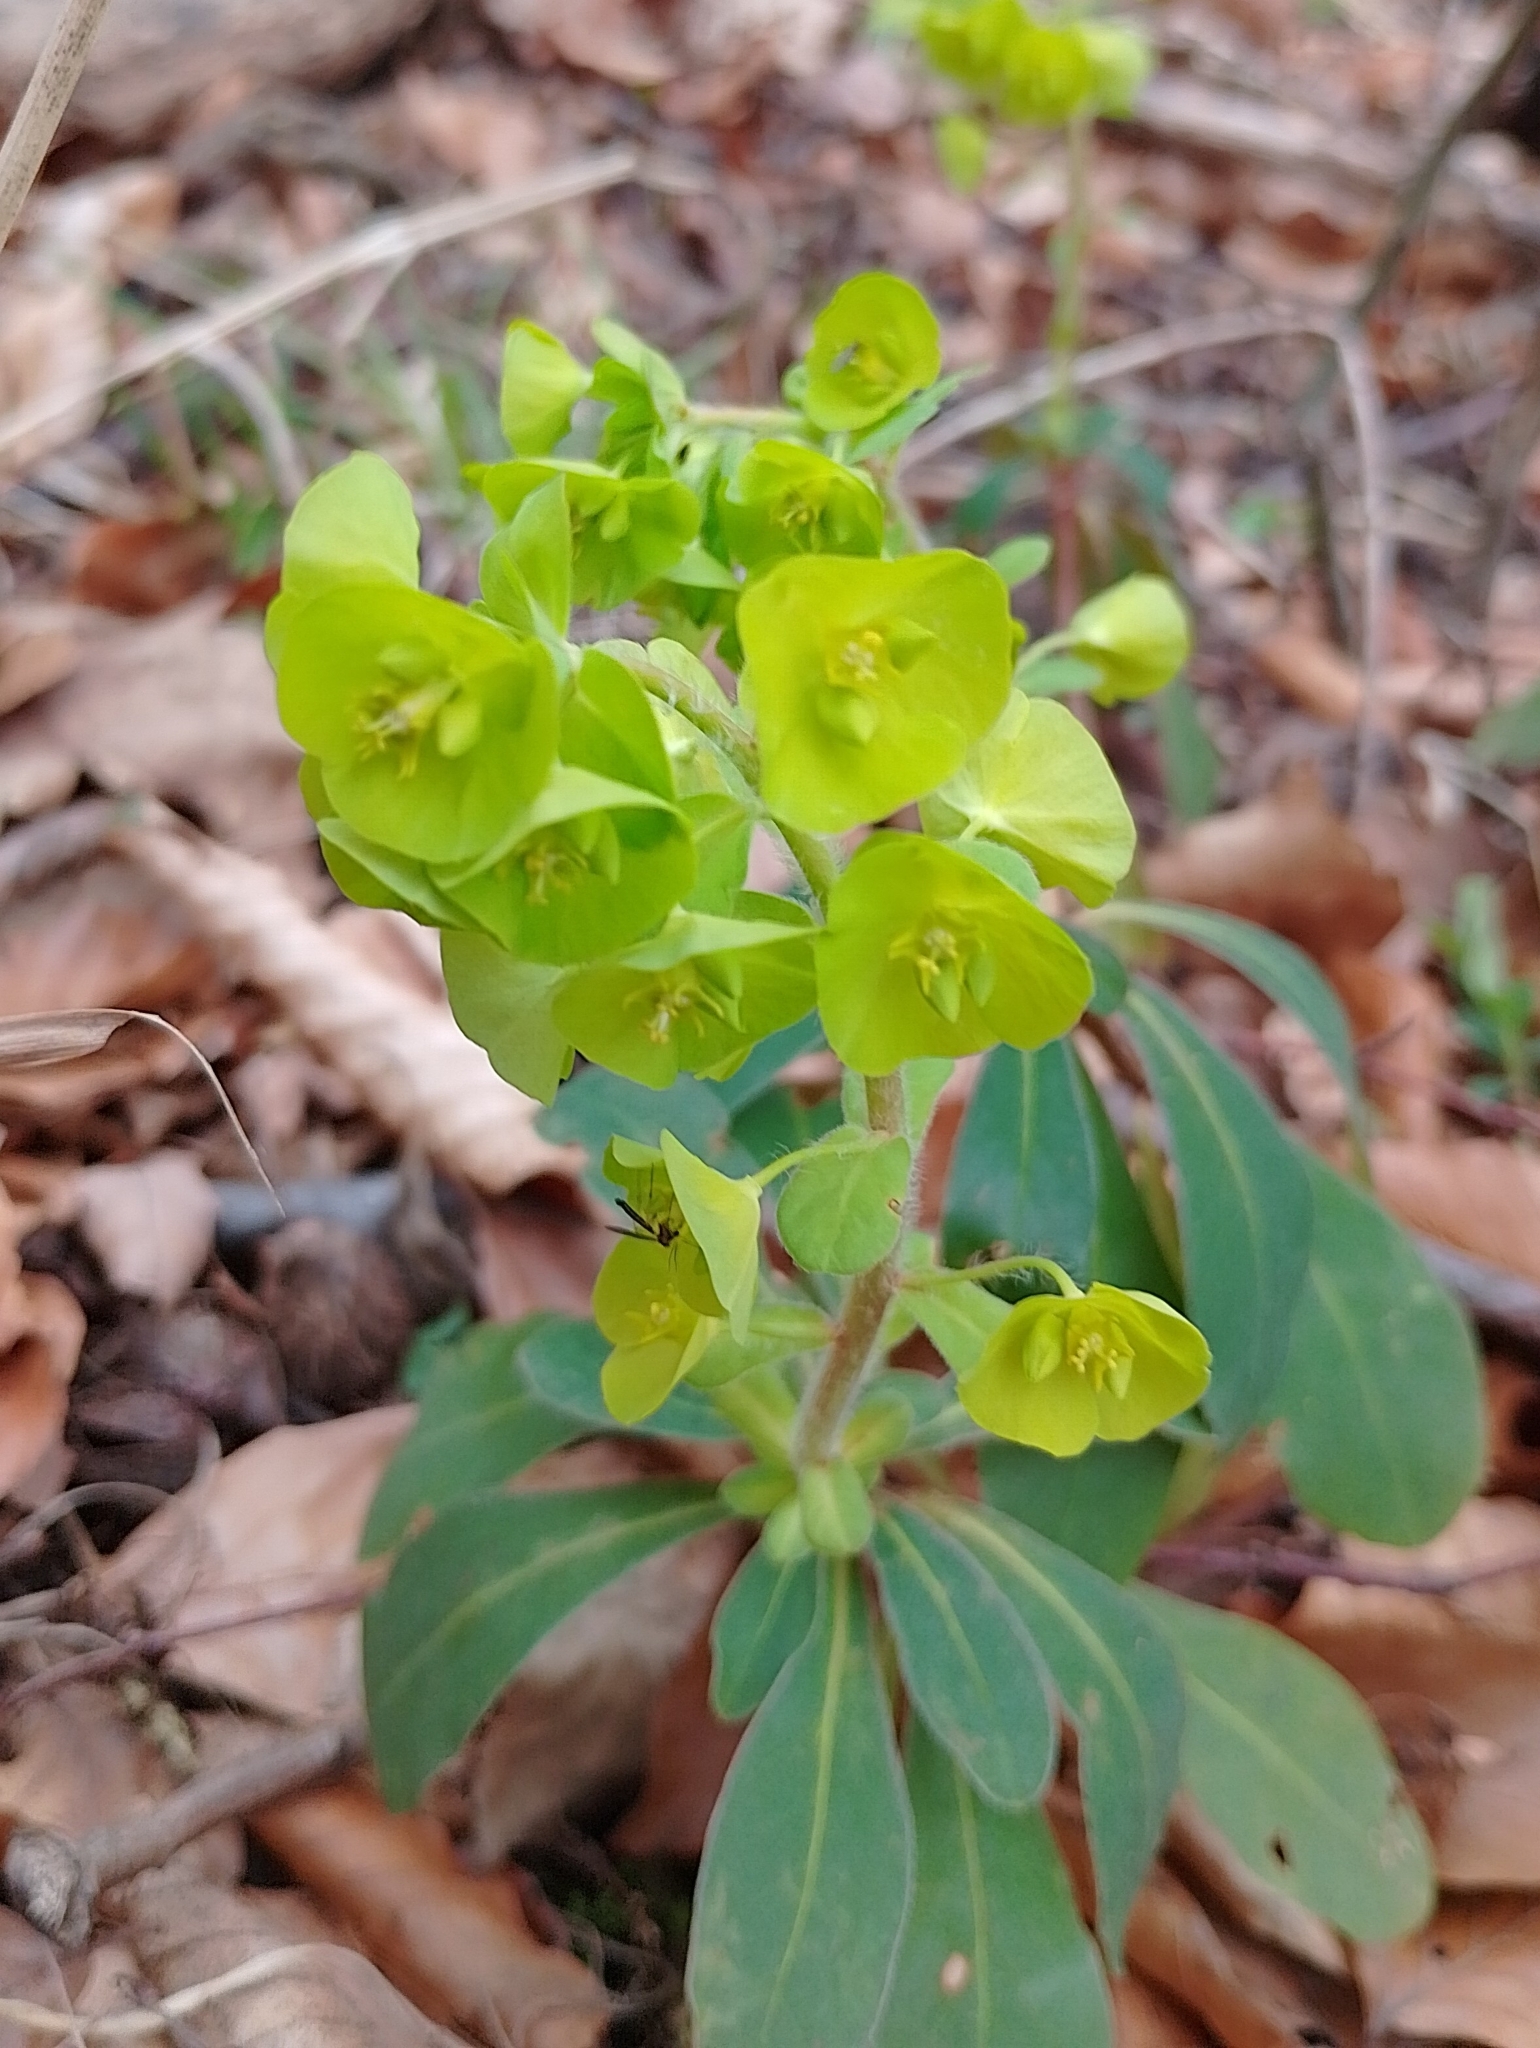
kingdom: Plantae
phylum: Tracheophyta
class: Magnoliopsida
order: Malpighiales
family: Euphorbiaceae
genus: Euphorbia
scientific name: Euphorbia amygdaloides
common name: Wood spurge
